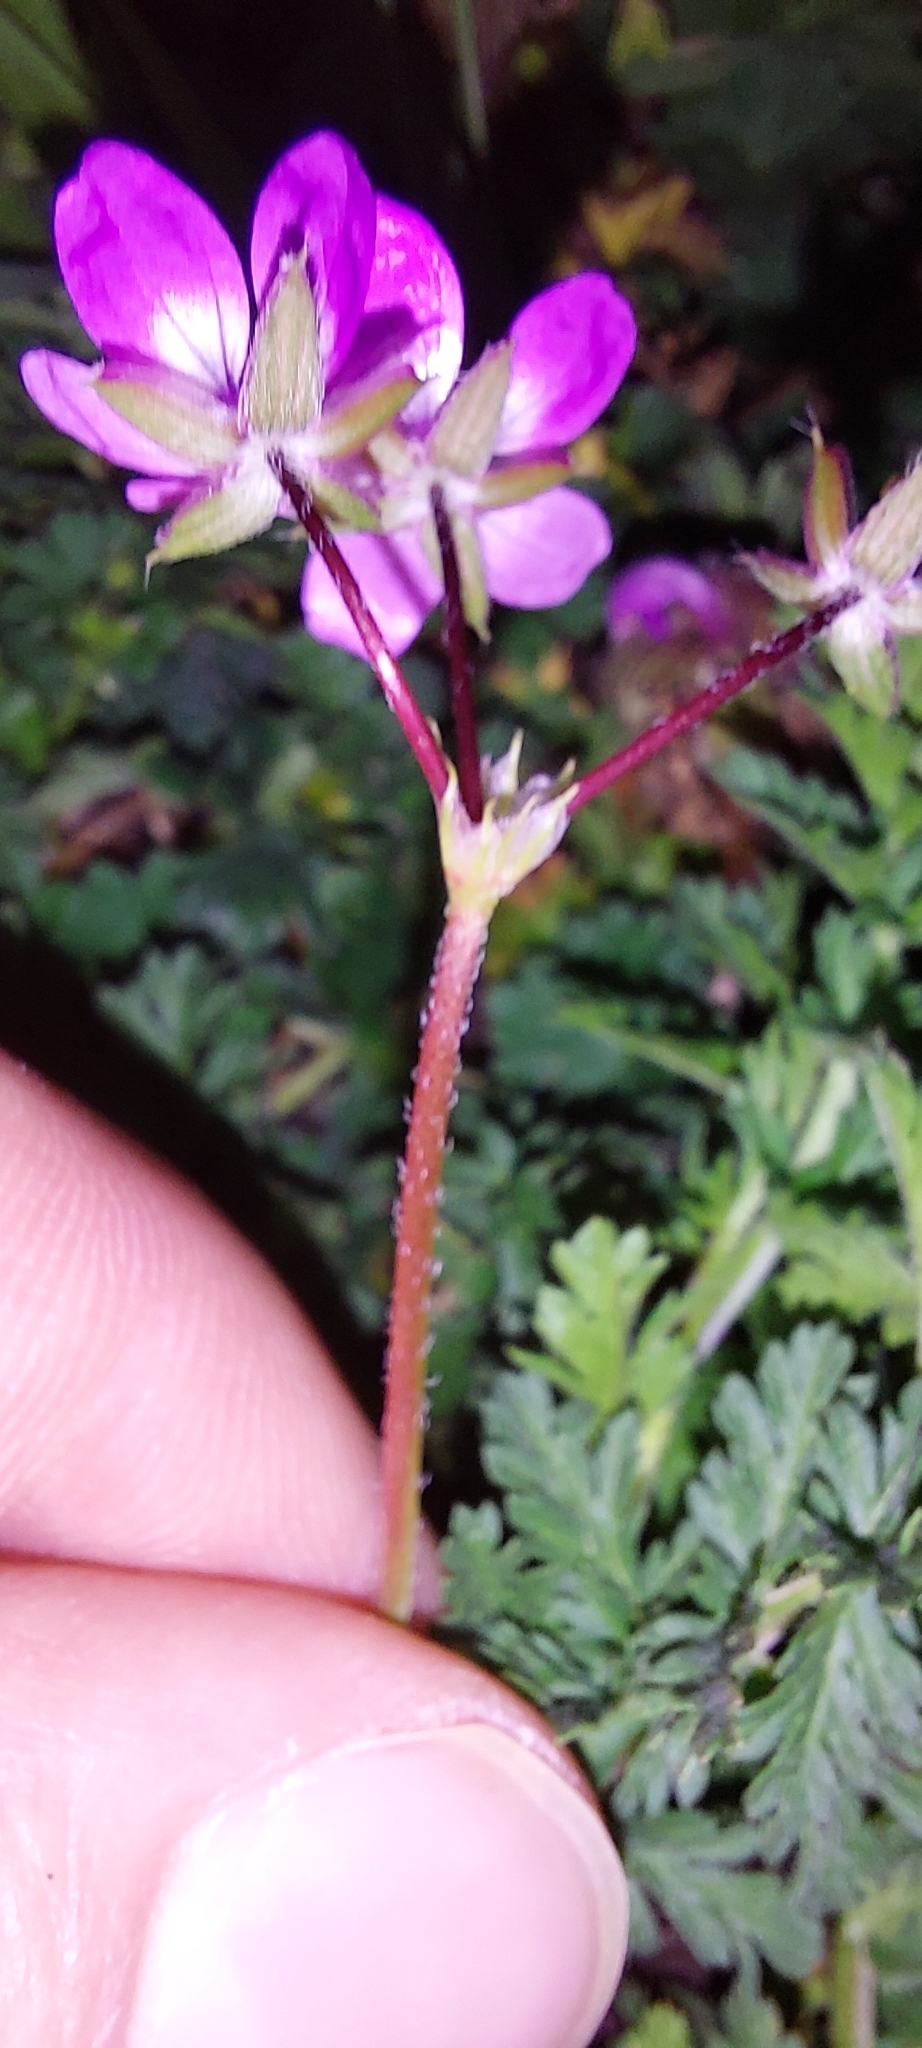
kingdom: Plantae
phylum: Tracheophyta
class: Magnoliopsida
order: Geraniales
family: Geraniaceae
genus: Erodium
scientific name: Erodium cicutarium
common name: Common stork's-bill
